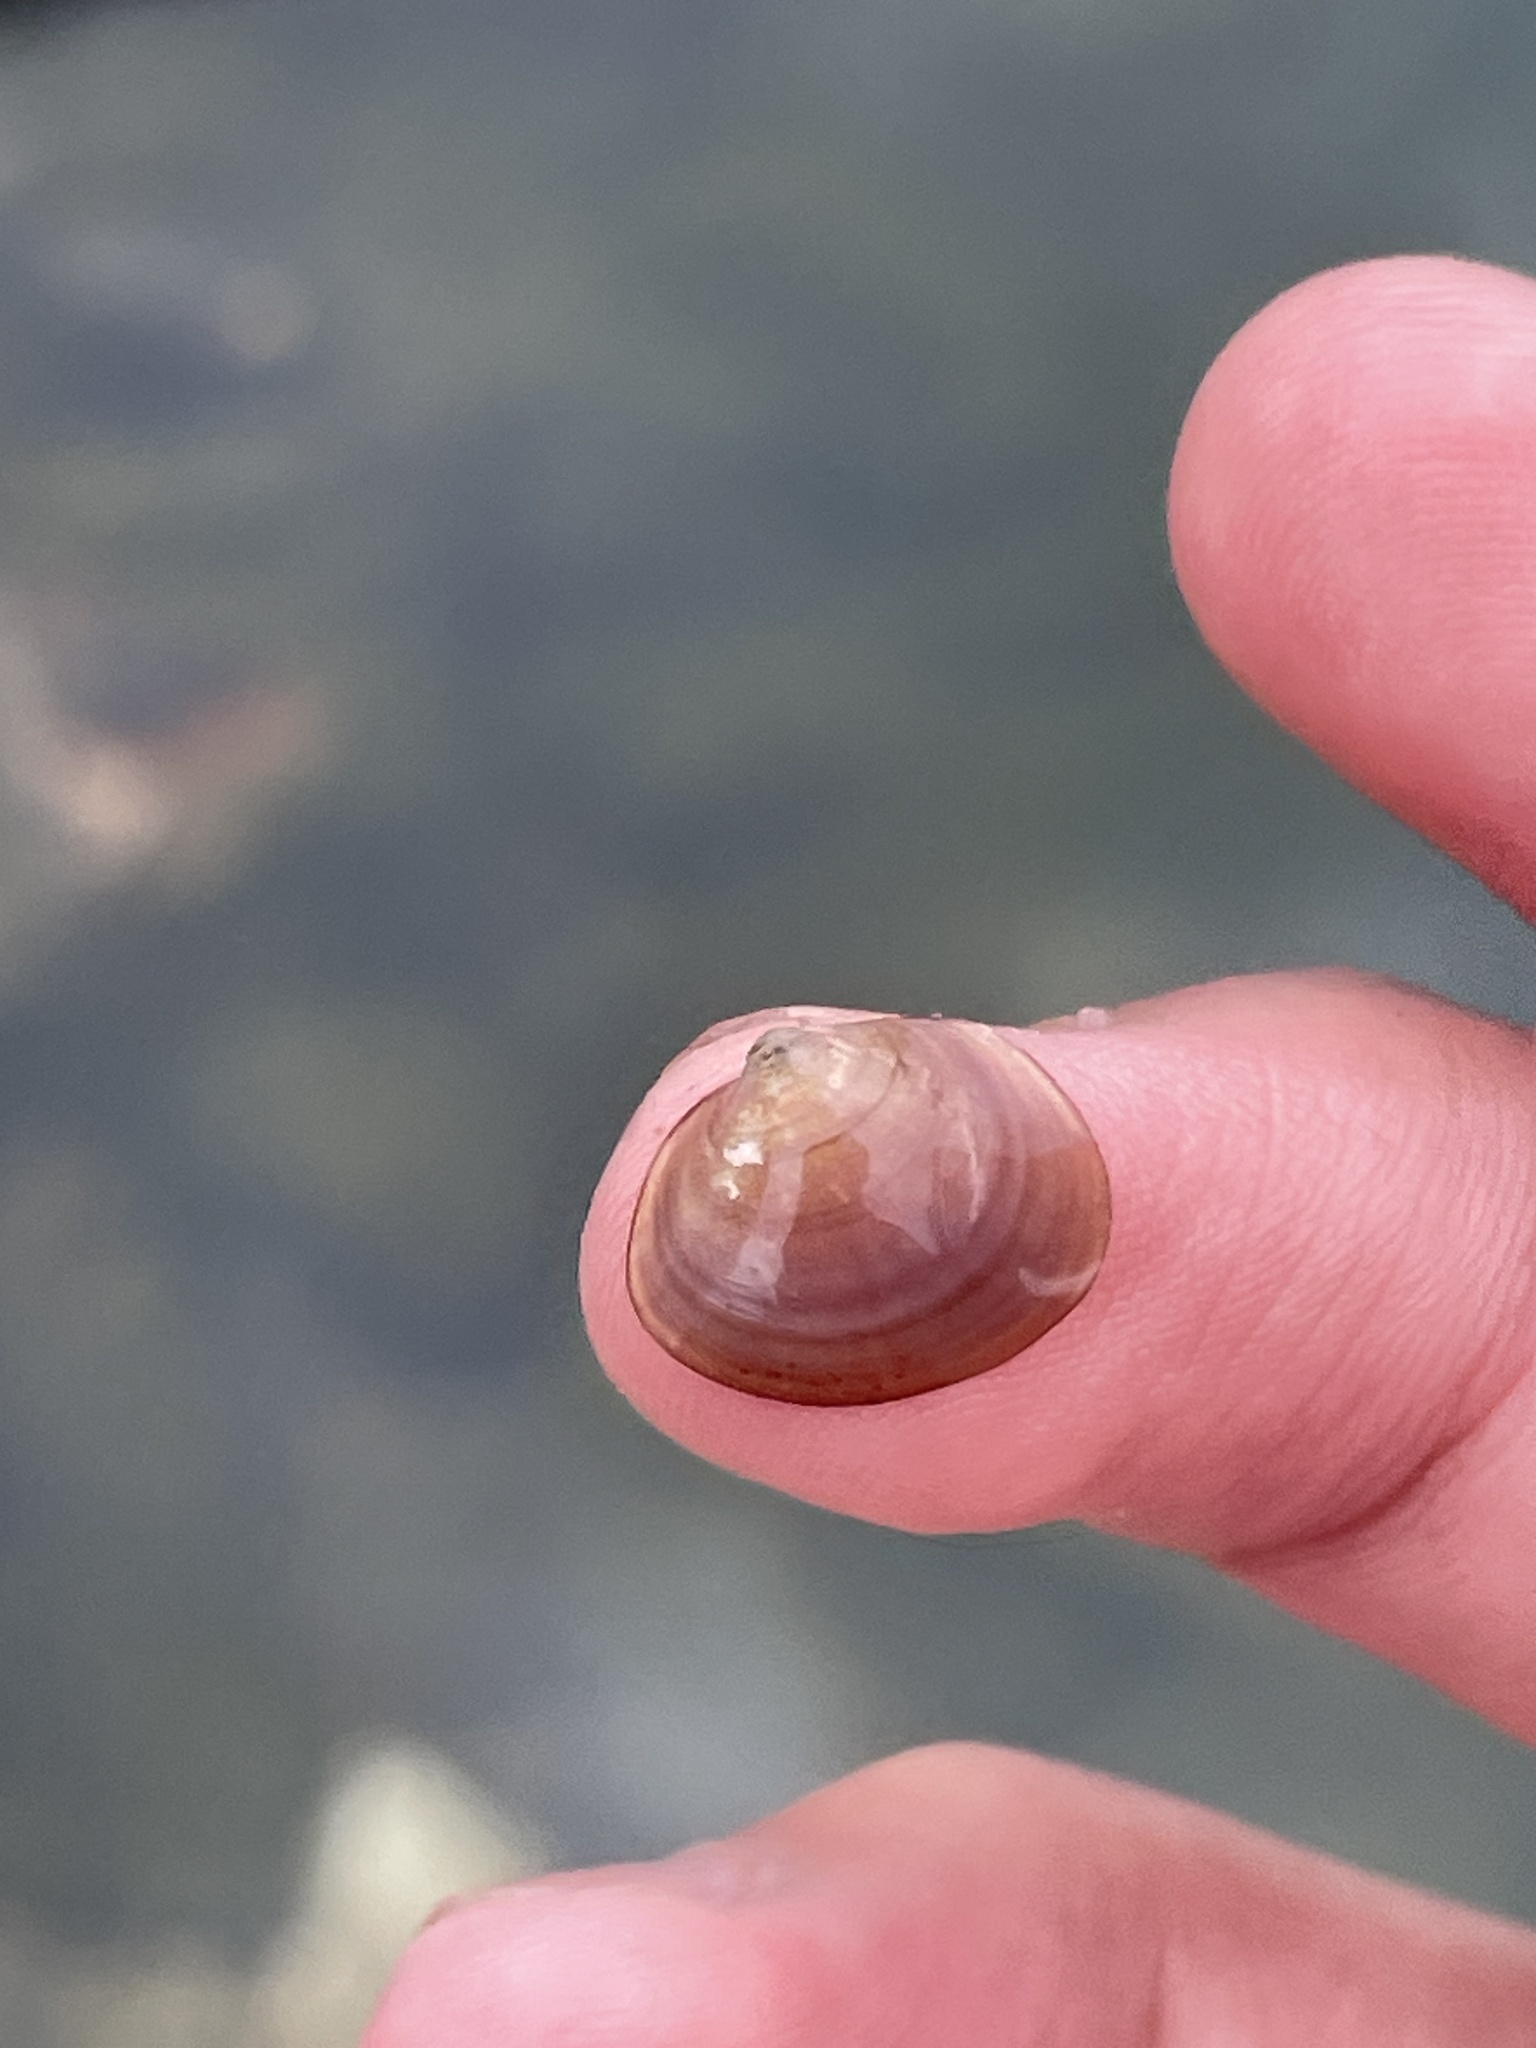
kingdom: Animalia
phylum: Mollusca
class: Bivalvia
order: Sphaeriida
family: Sphaeriidae
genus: Musculium
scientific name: Musculium lacustre
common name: Lake fingernailclam
